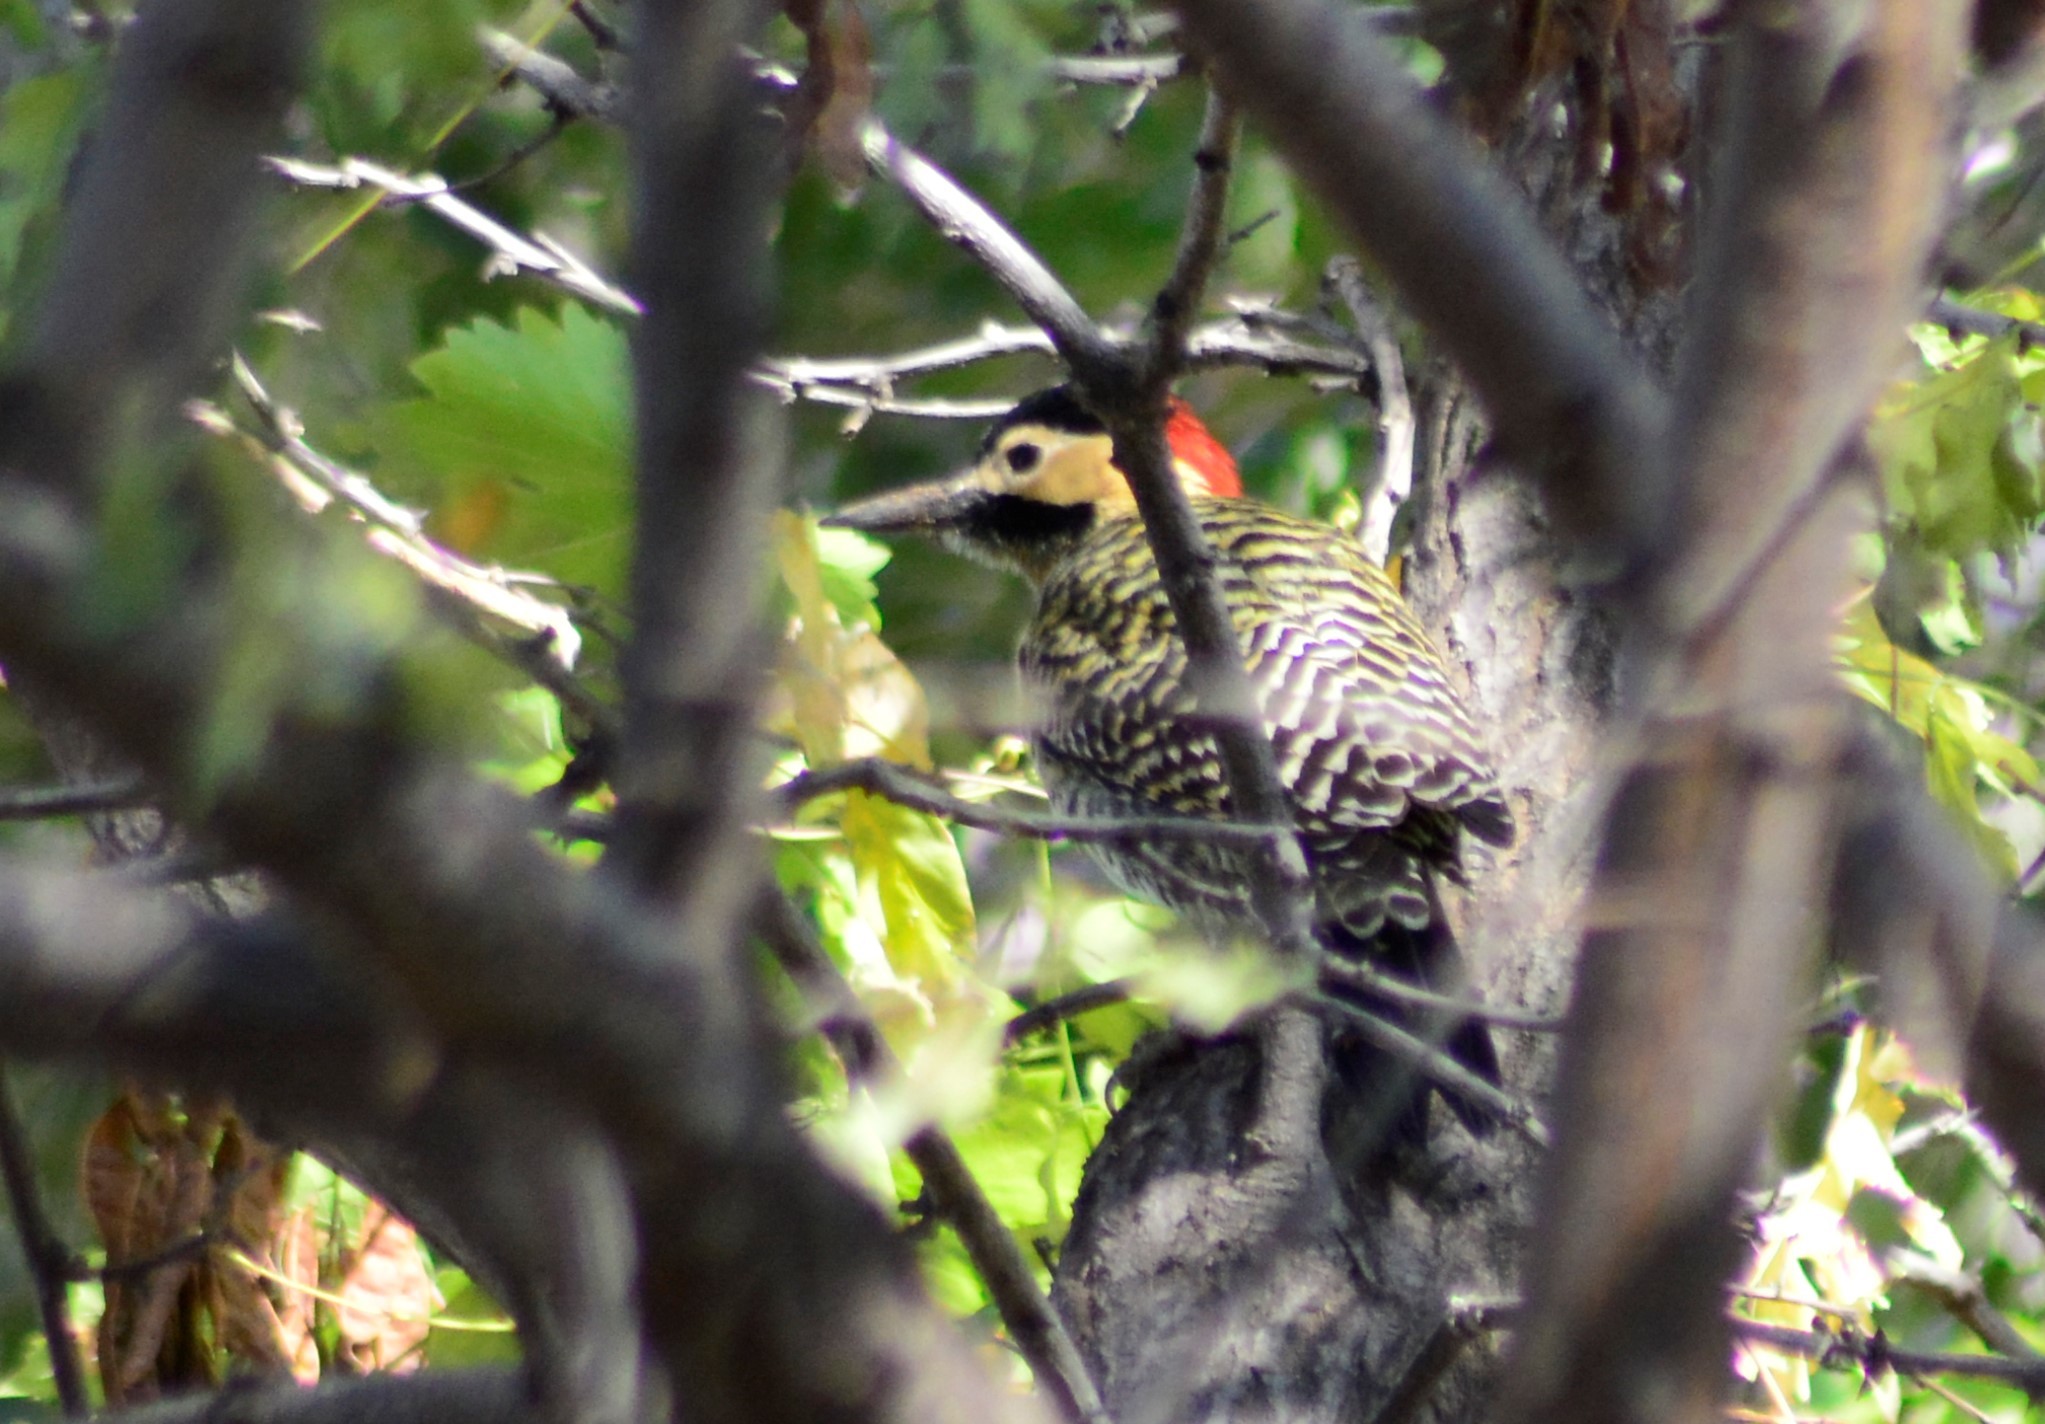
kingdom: Animalia
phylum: Chordata
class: Aves
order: Piciformes
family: Picidae
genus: Colaptes
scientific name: Colaptes melanochloros
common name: Green-barred woodpecker
